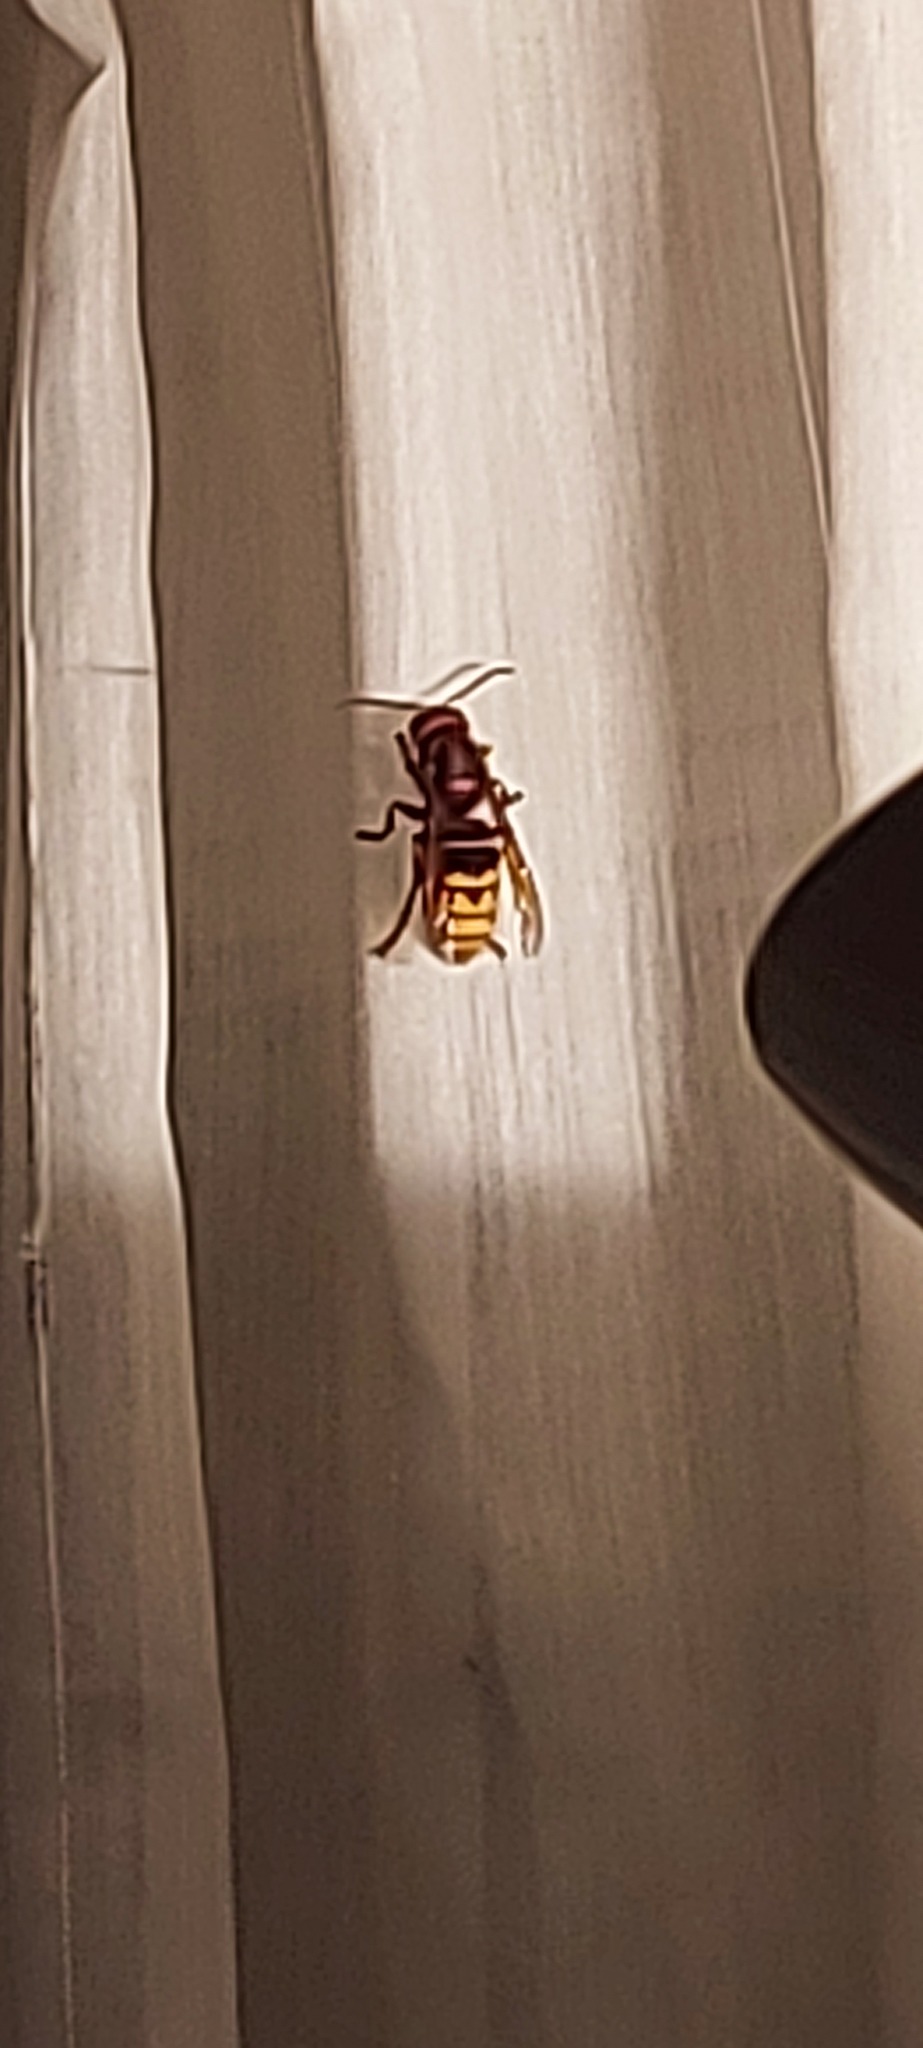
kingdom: Animalia
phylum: Arthropoda
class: Insecta
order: Hymenoptera
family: Vespidae
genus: Vespa
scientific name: Vespa crabro
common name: Hornet
